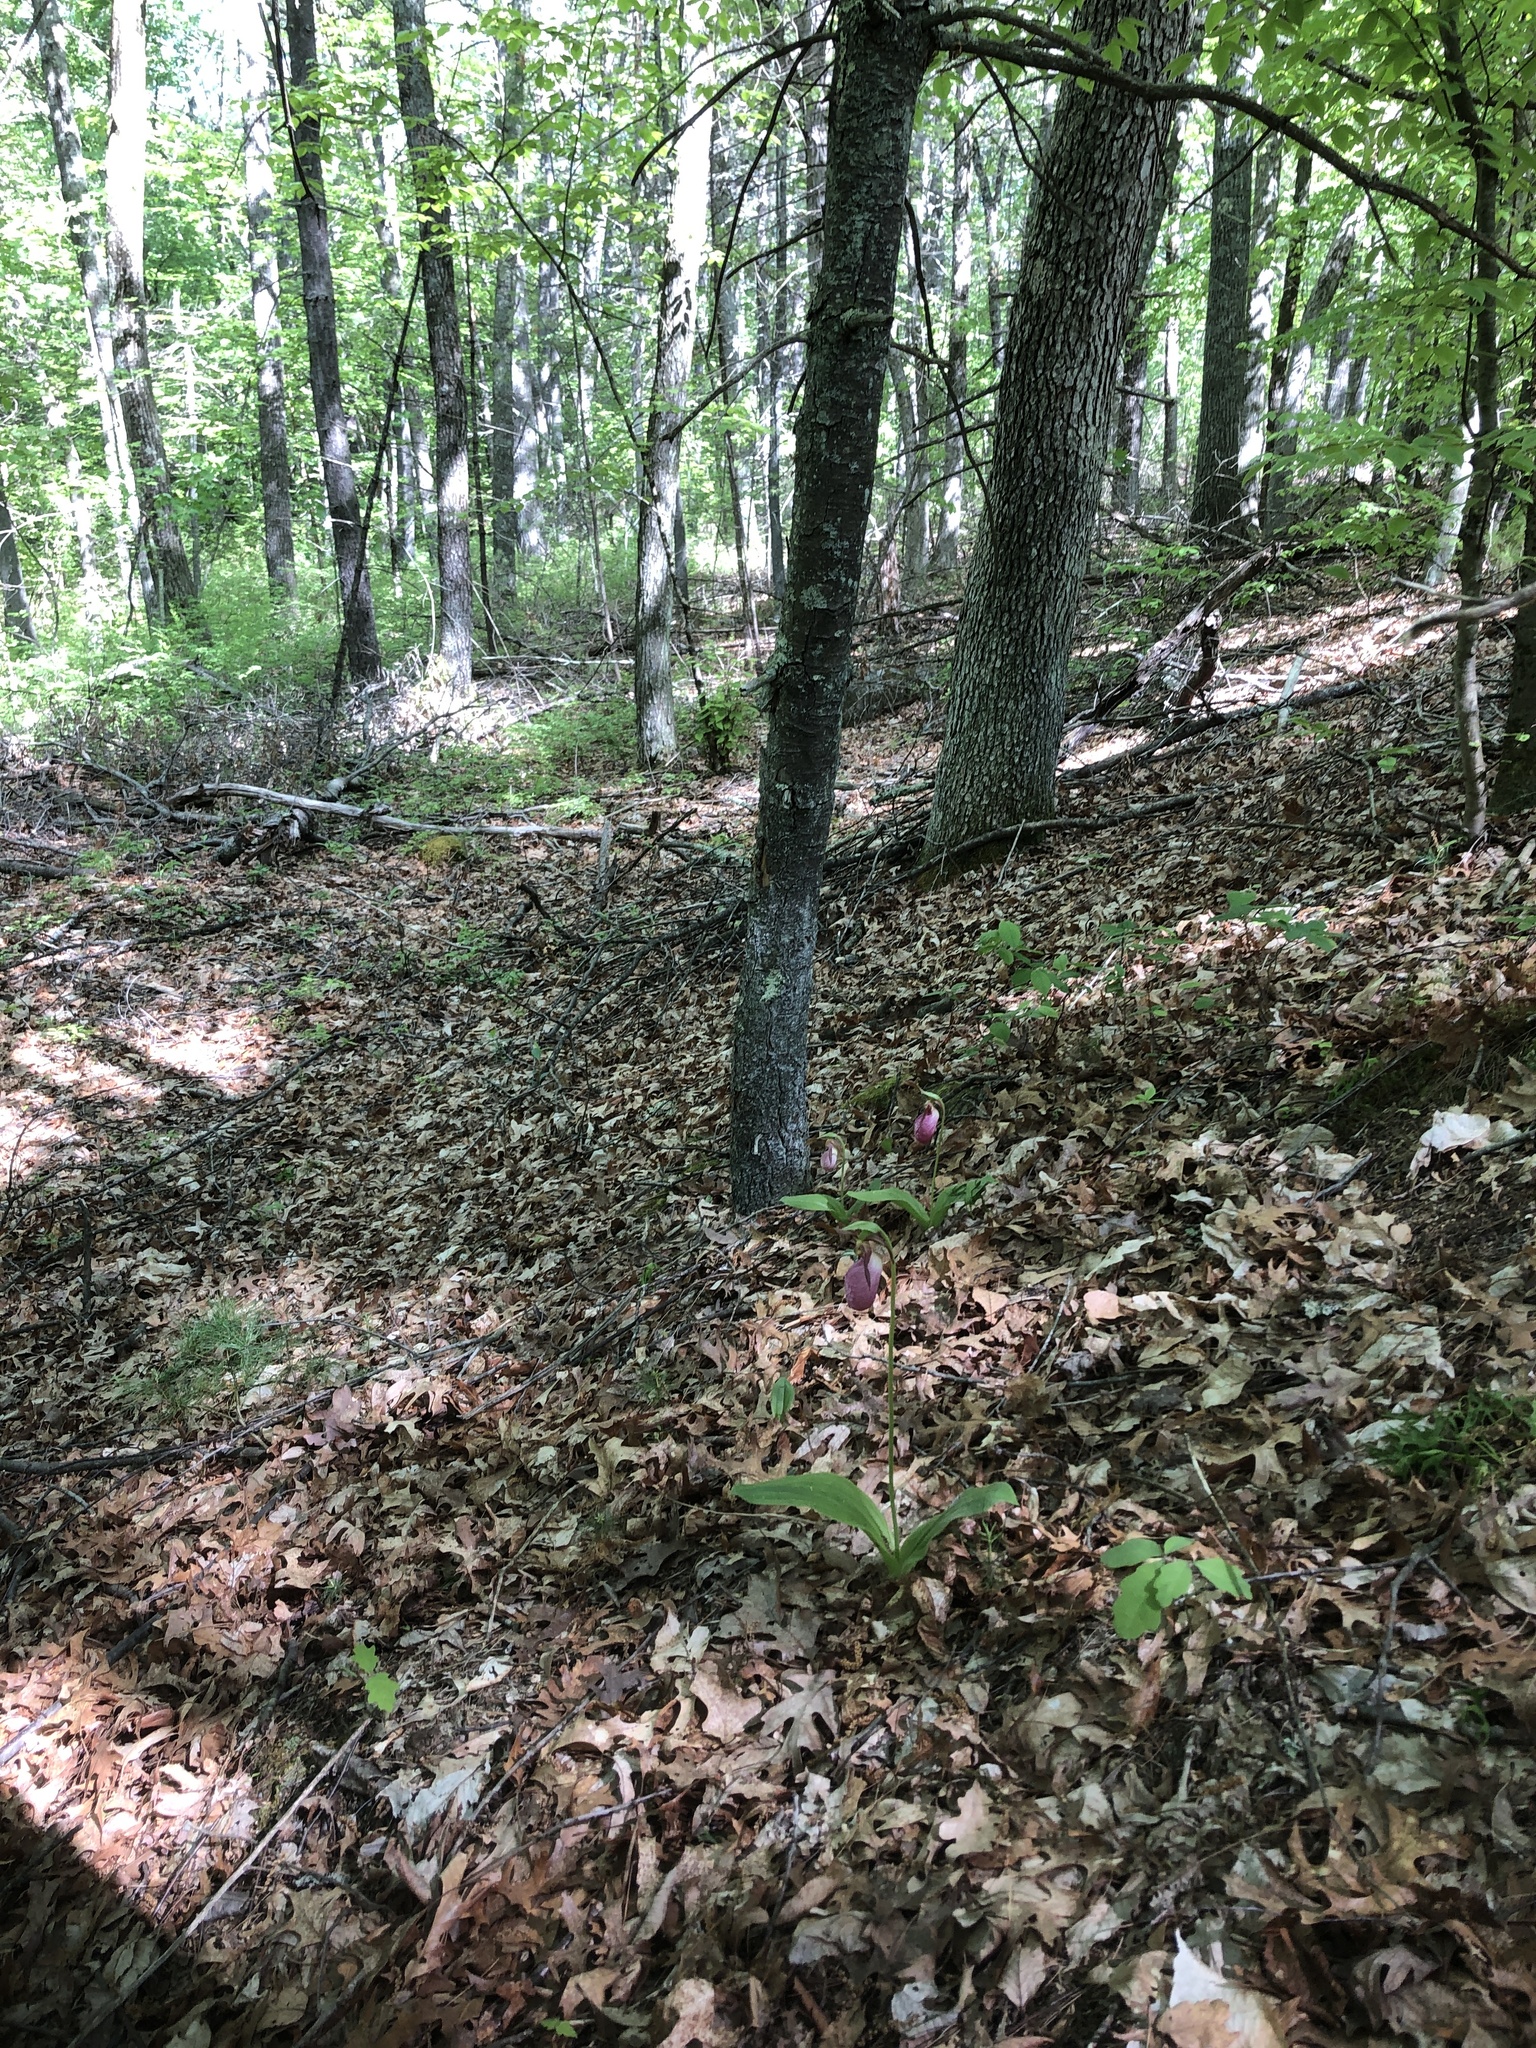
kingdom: Plantae
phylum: Tracheophyta
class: Liliopsida
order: Asparagales
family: Orchidaceae
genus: Cypripedium
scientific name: Cypripedium acaule
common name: Pink lady's-slipper
